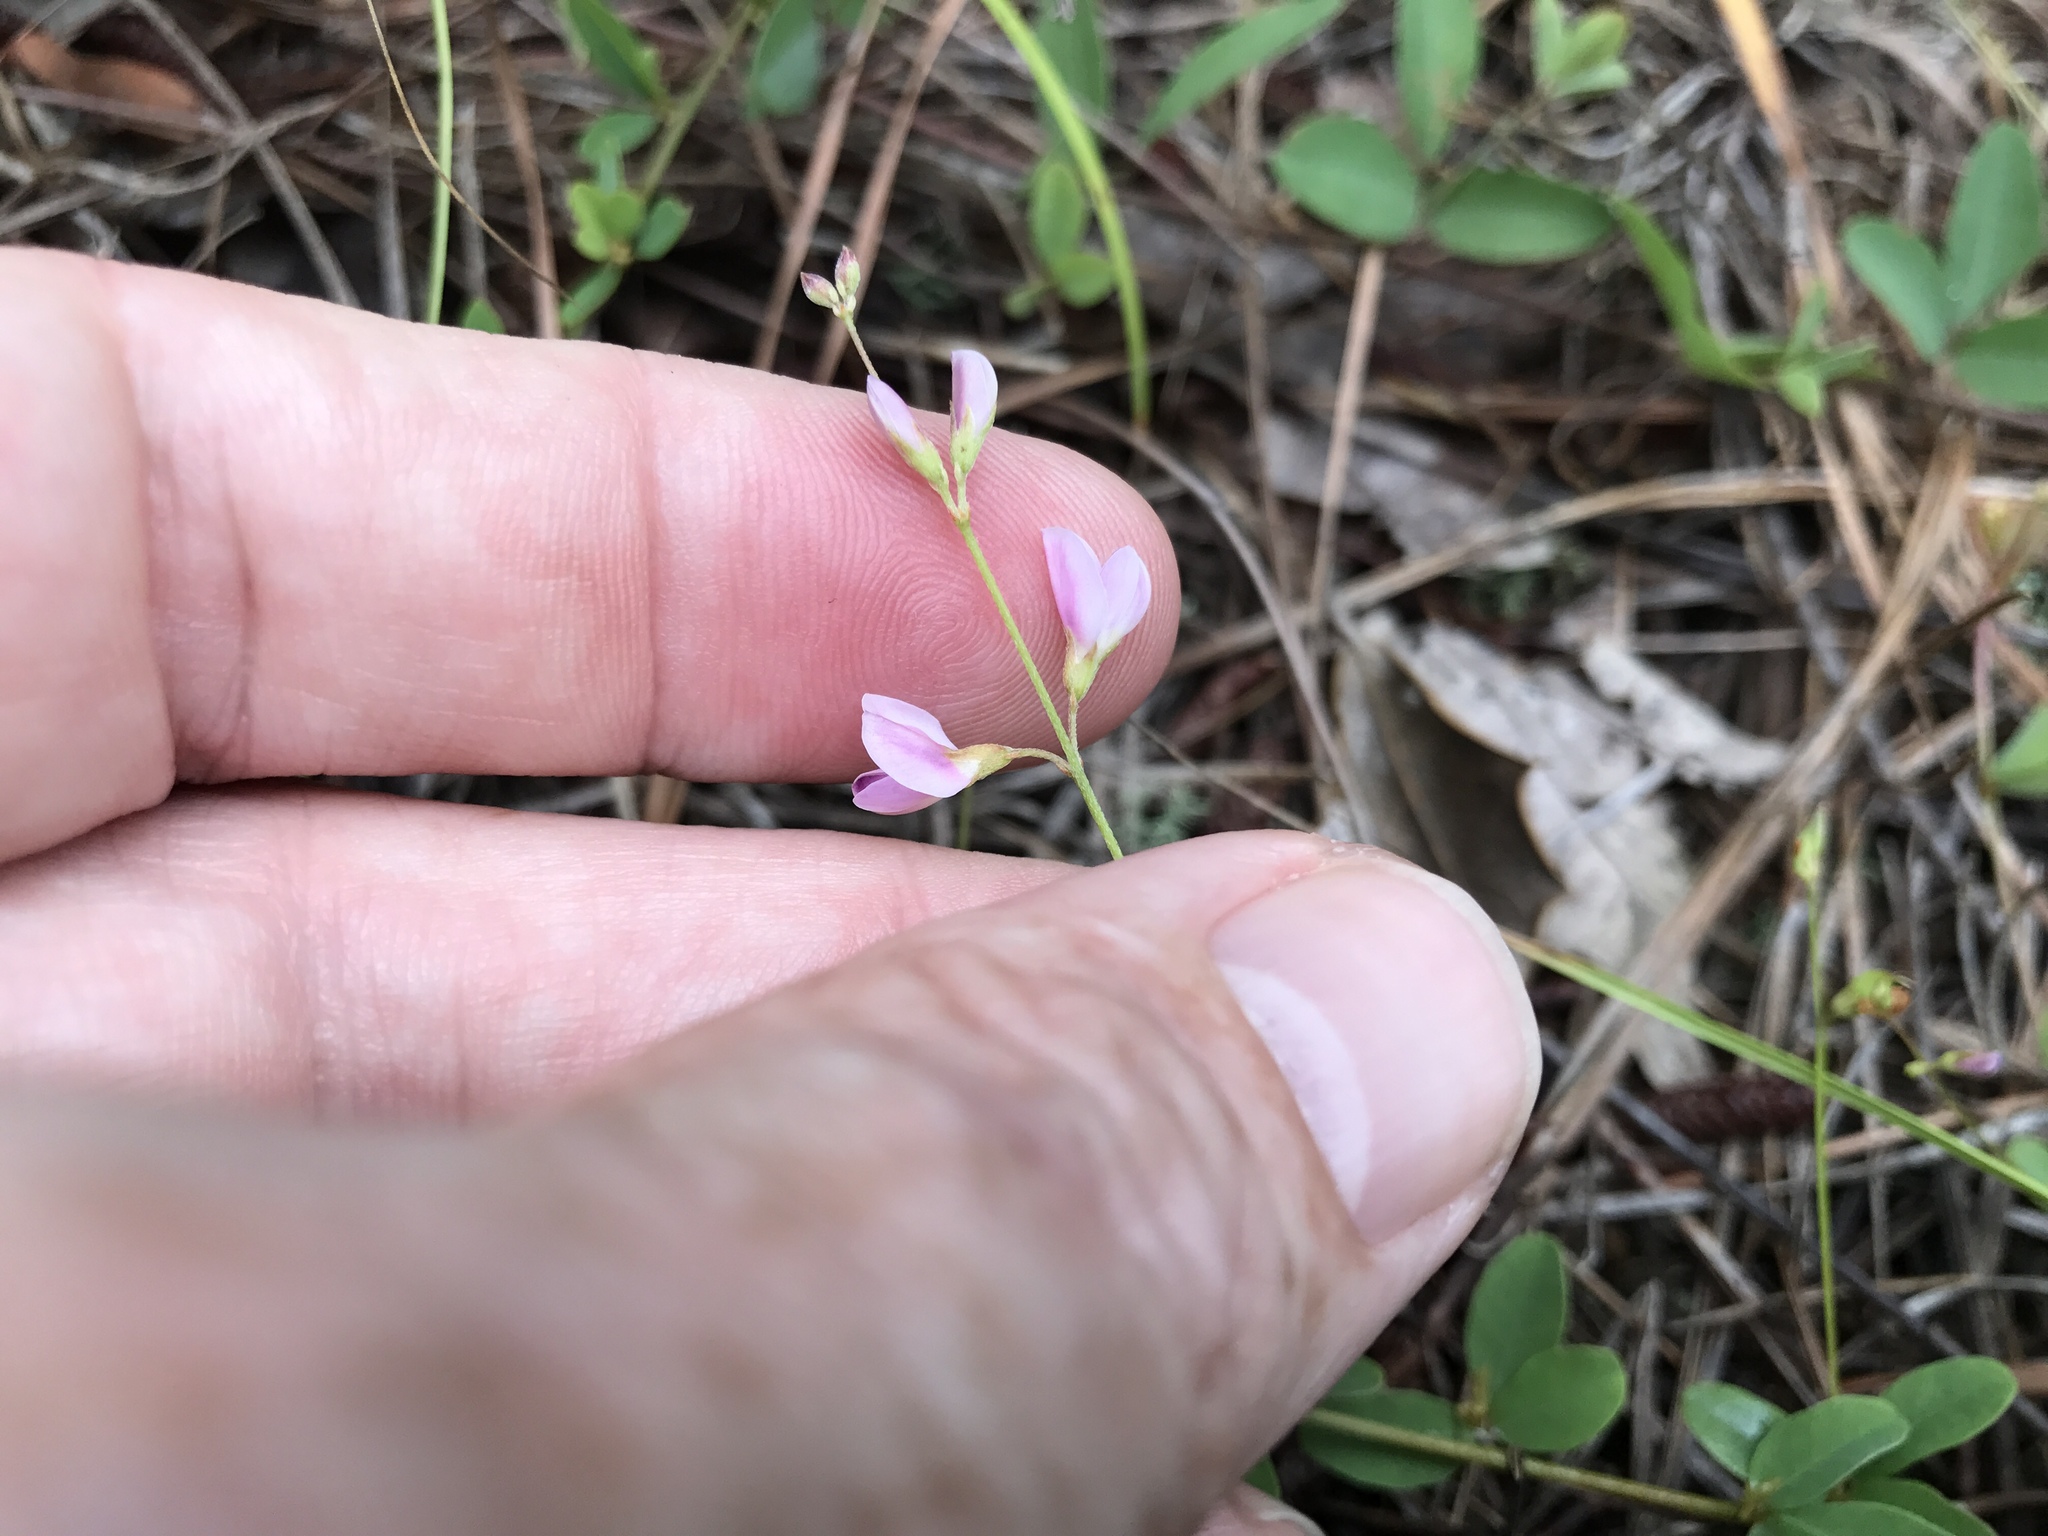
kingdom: Plantae
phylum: Tracheophyta
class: Magnoliopsida
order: Fabales
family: Fabaceae
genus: Lespedeza
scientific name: Lespedeza repens
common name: Creeping bush-clover
